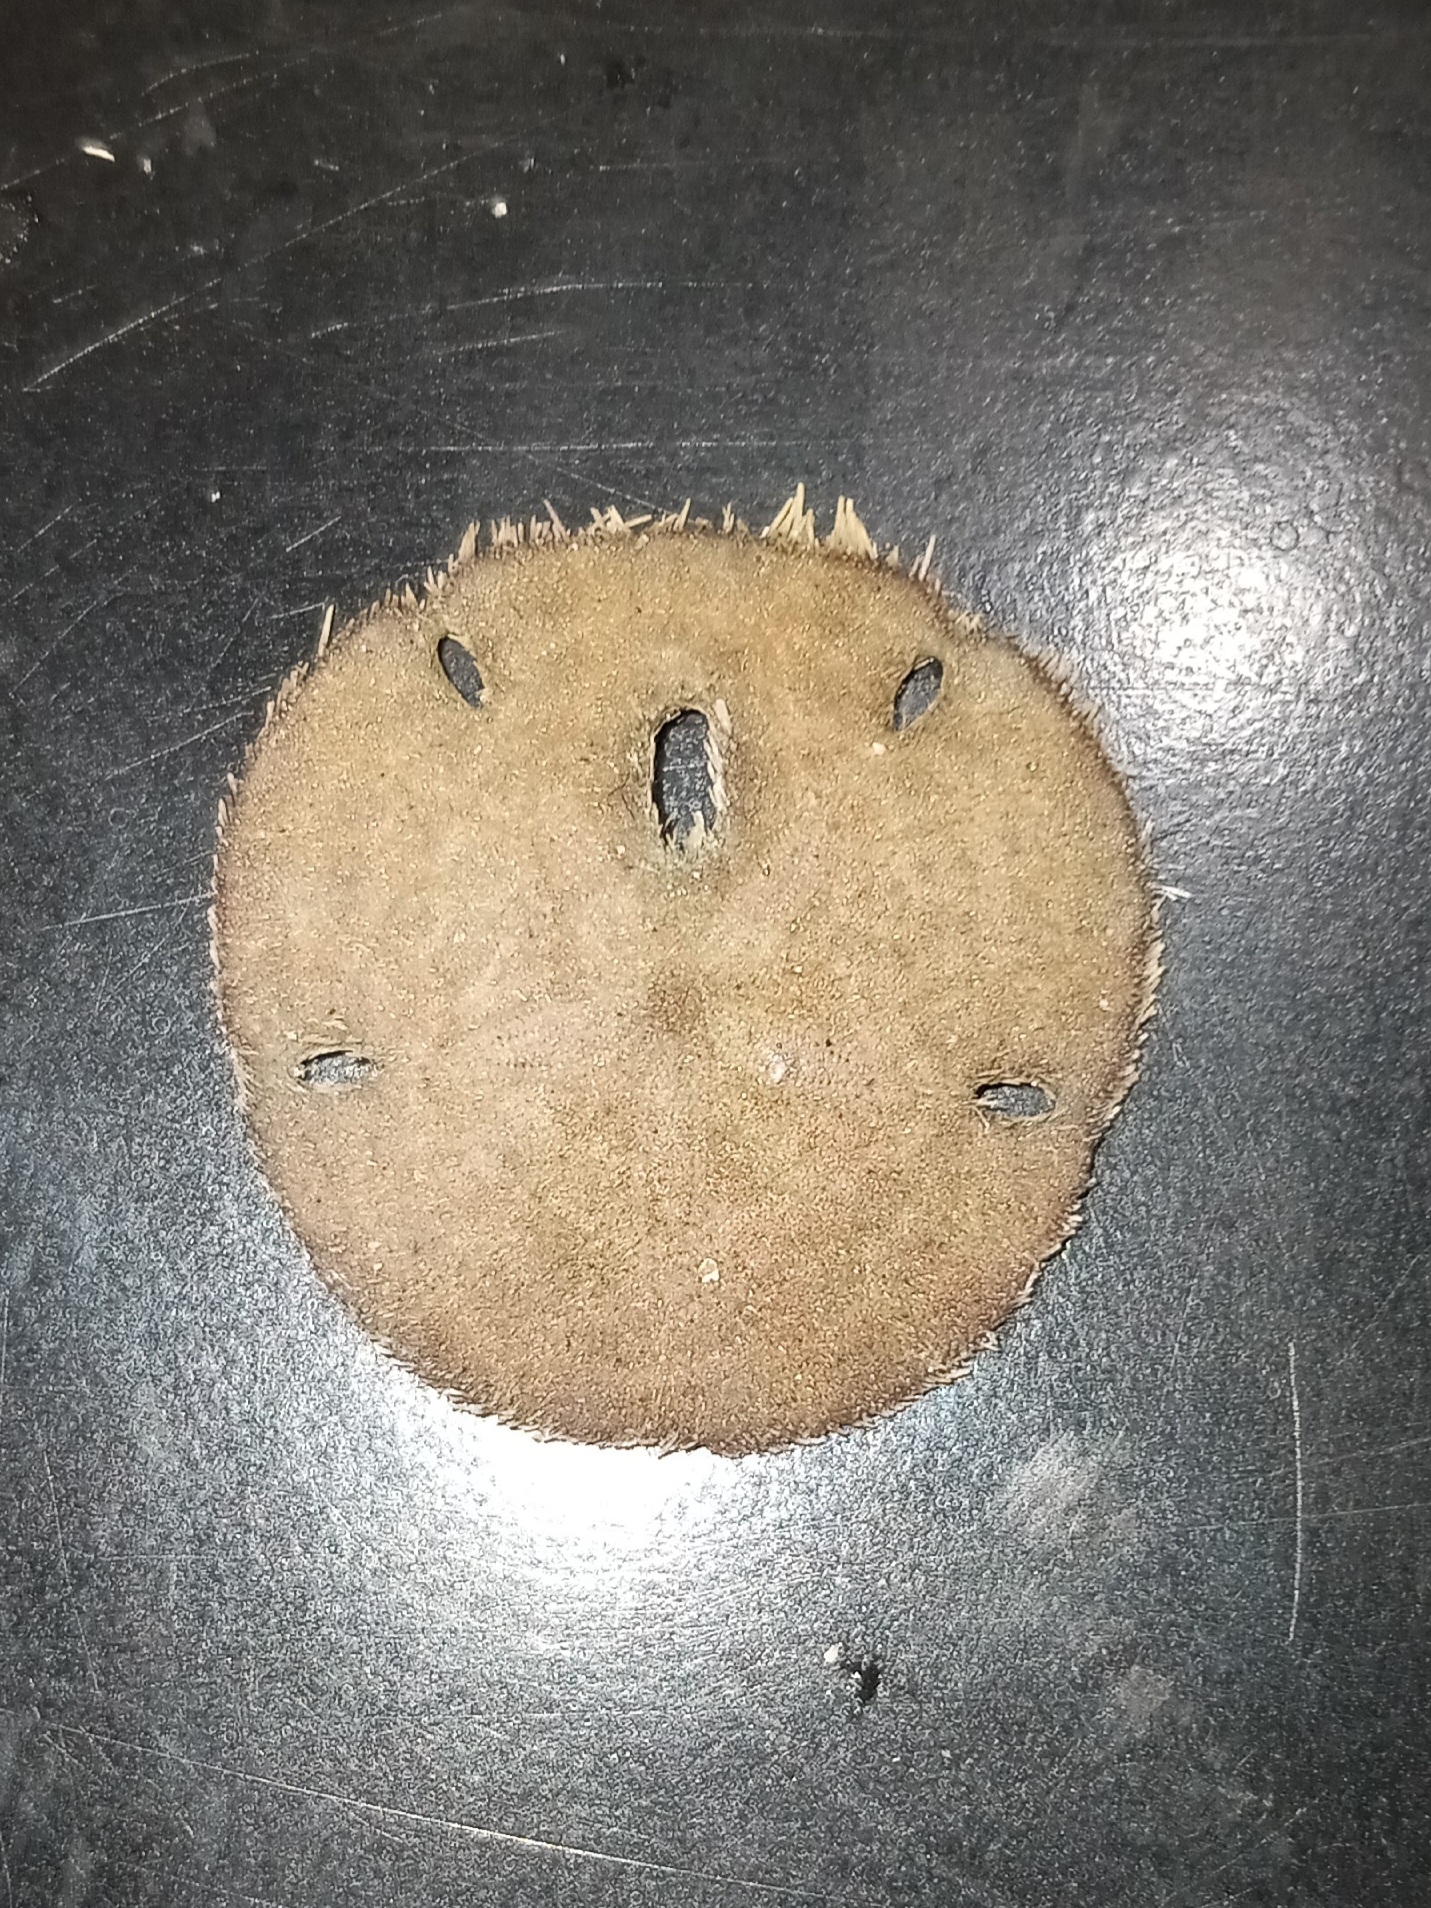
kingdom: Animalia
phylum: Echinodermata
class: Echinoidea
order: Echinolampadacea
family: Mellitidae
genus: Mellita
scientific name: Mellita isometra
